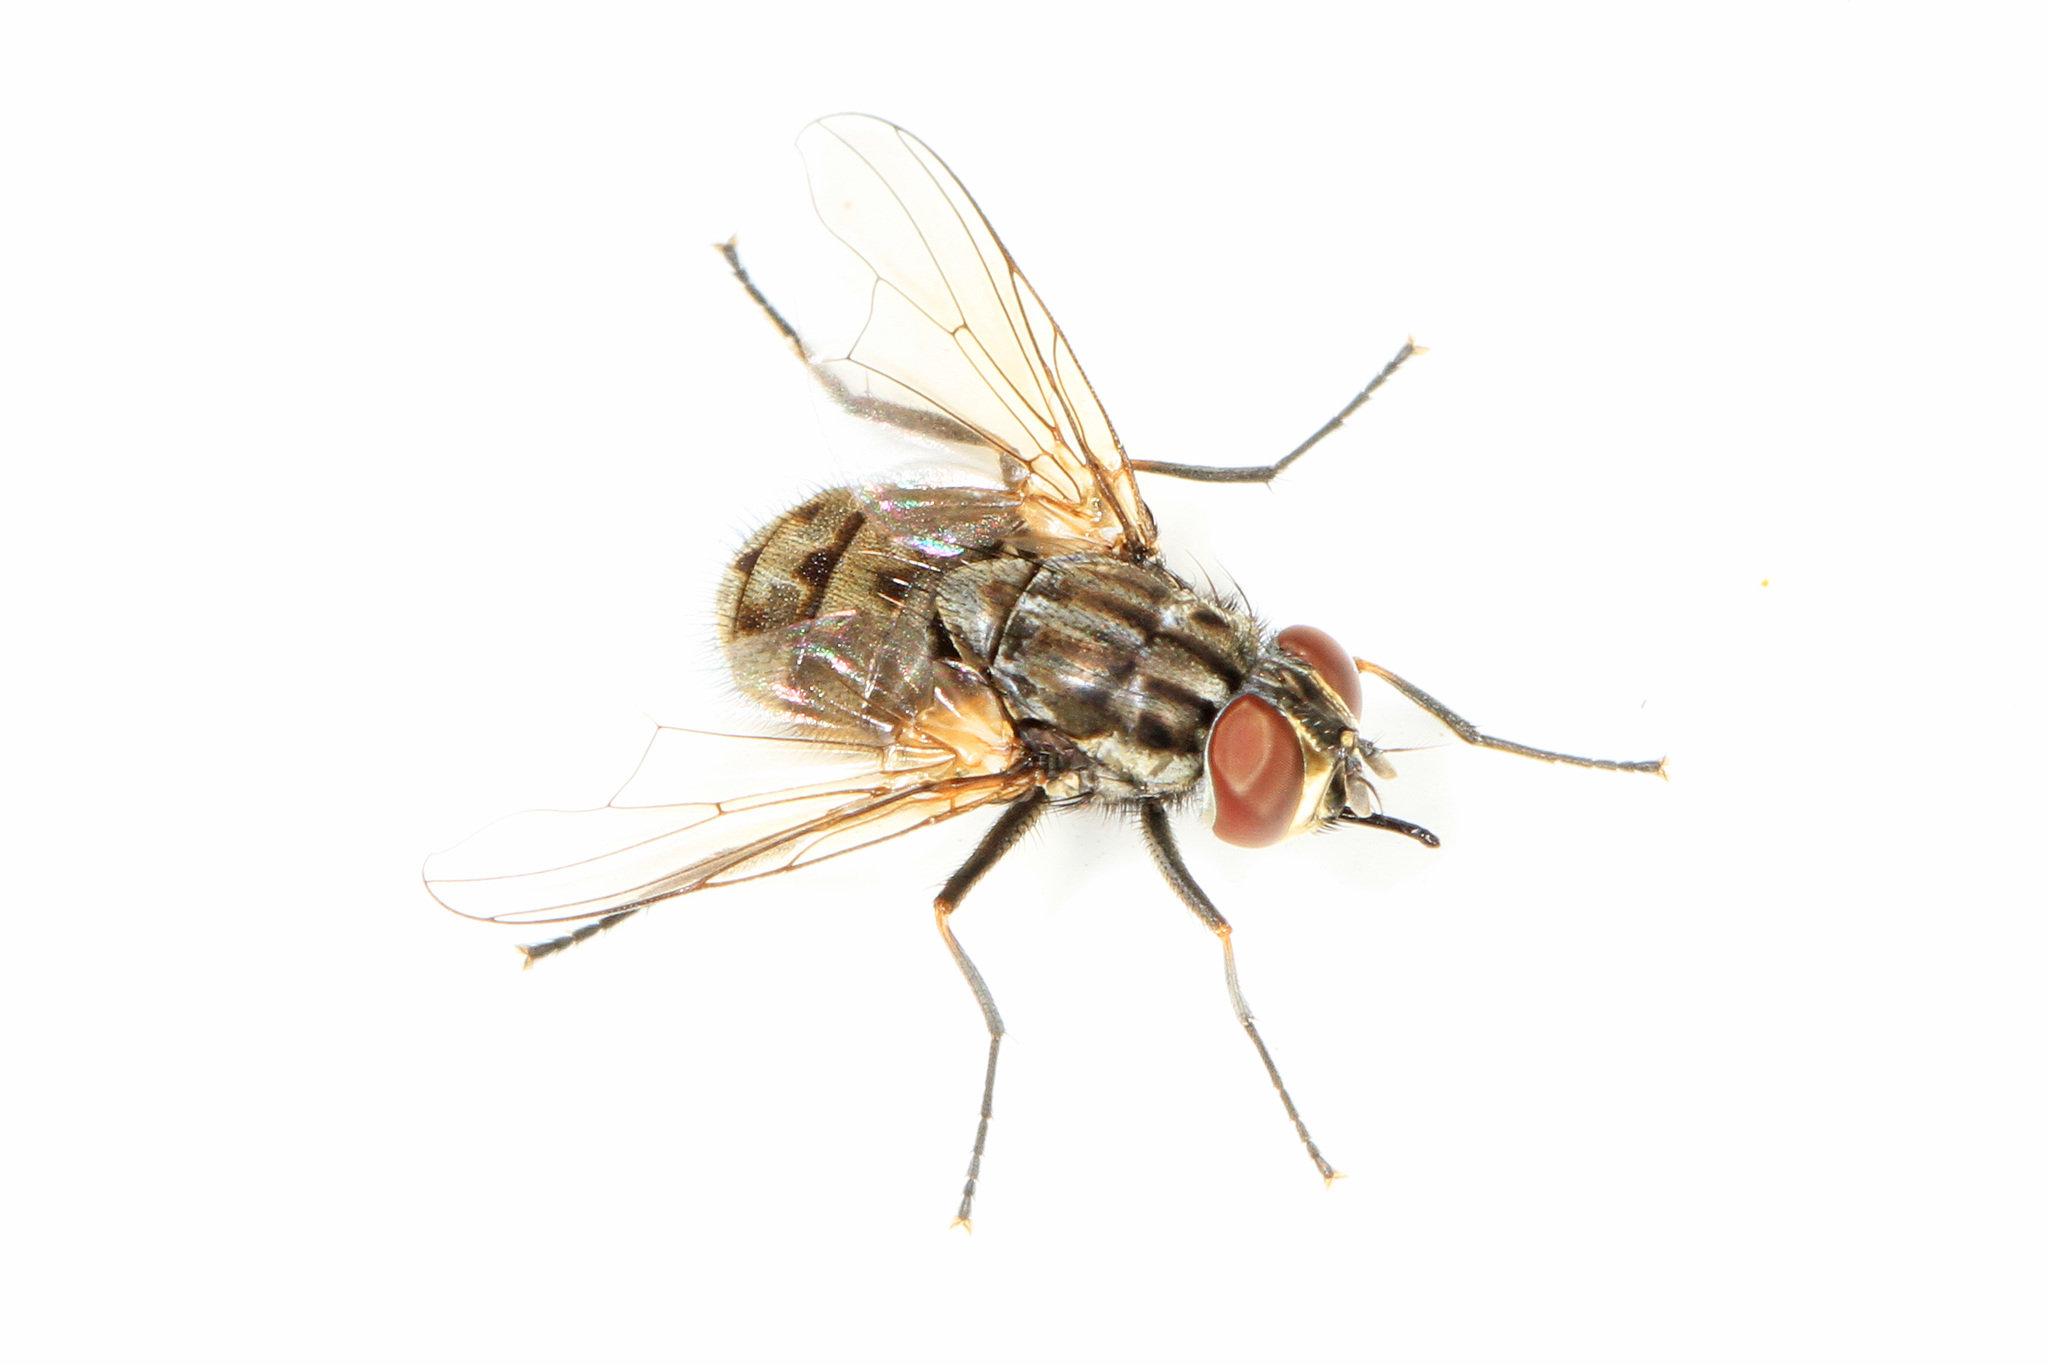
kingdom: Animalia
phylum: Arthropoda
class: Insecta
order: Diptera
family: Muscidae
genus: Stomoxys
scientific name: Stomoxys calcitrans
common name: Stable fly
